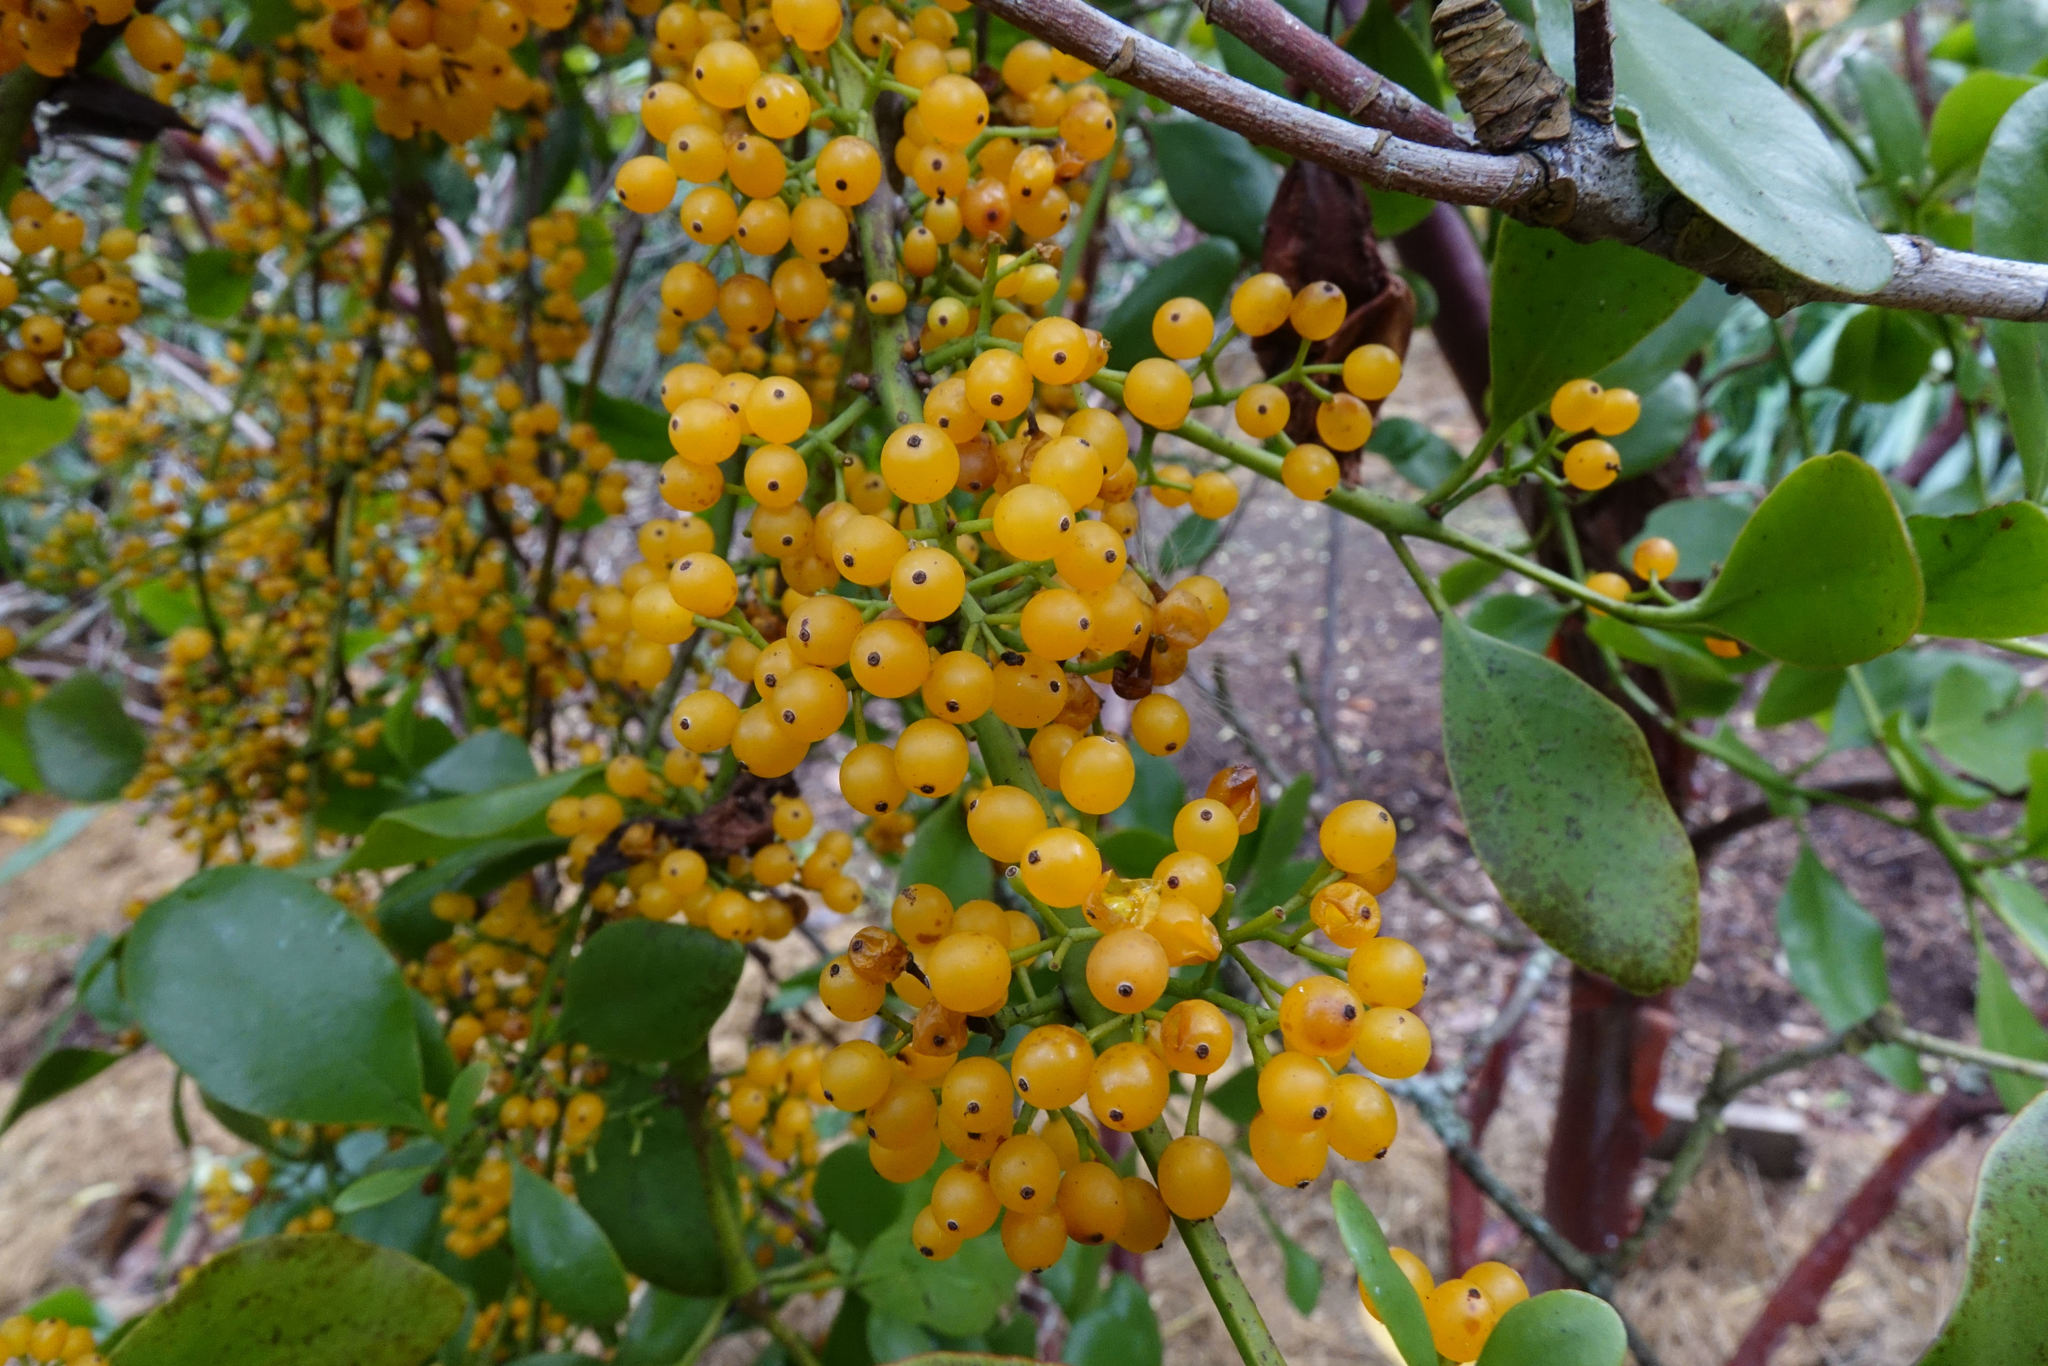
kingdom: Plantae
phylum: Tracheophyta
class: Magnoliopsida
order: Santalales
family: Loranthaceae
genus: Ileostylus
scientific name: Ileostylus micranthus
